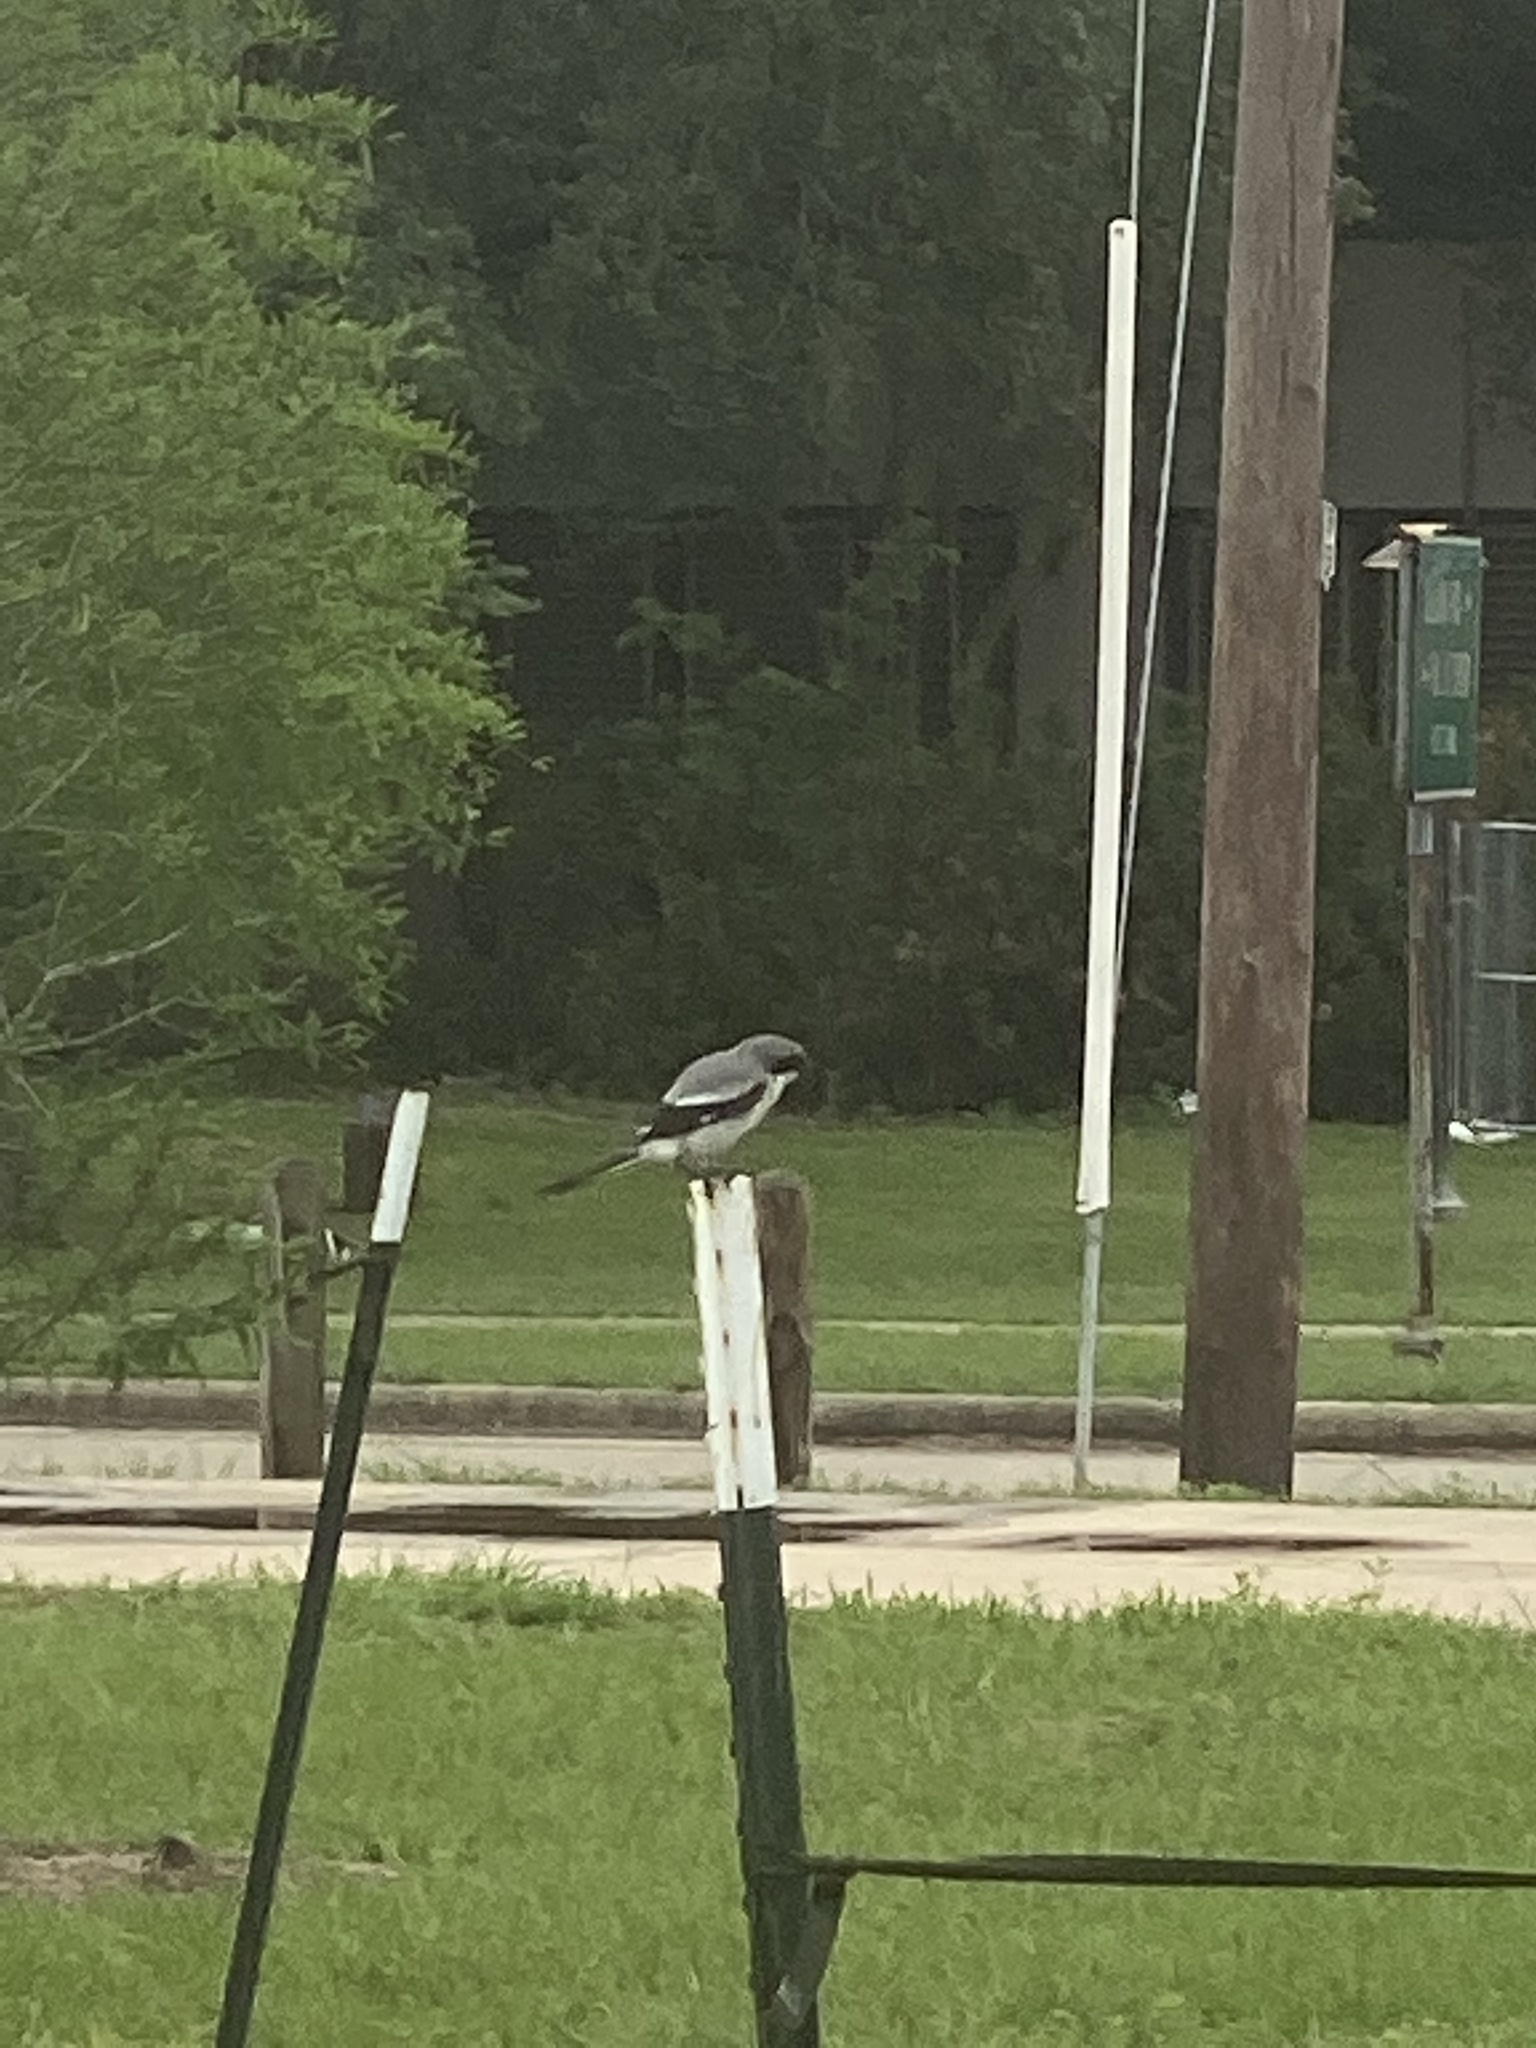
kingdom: Animalia
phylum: Chordata
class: Aves
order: Passeriformes
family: Laniidae
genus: Lanius
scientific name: Lanius ludovicianus
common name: Loggerhead shrike
